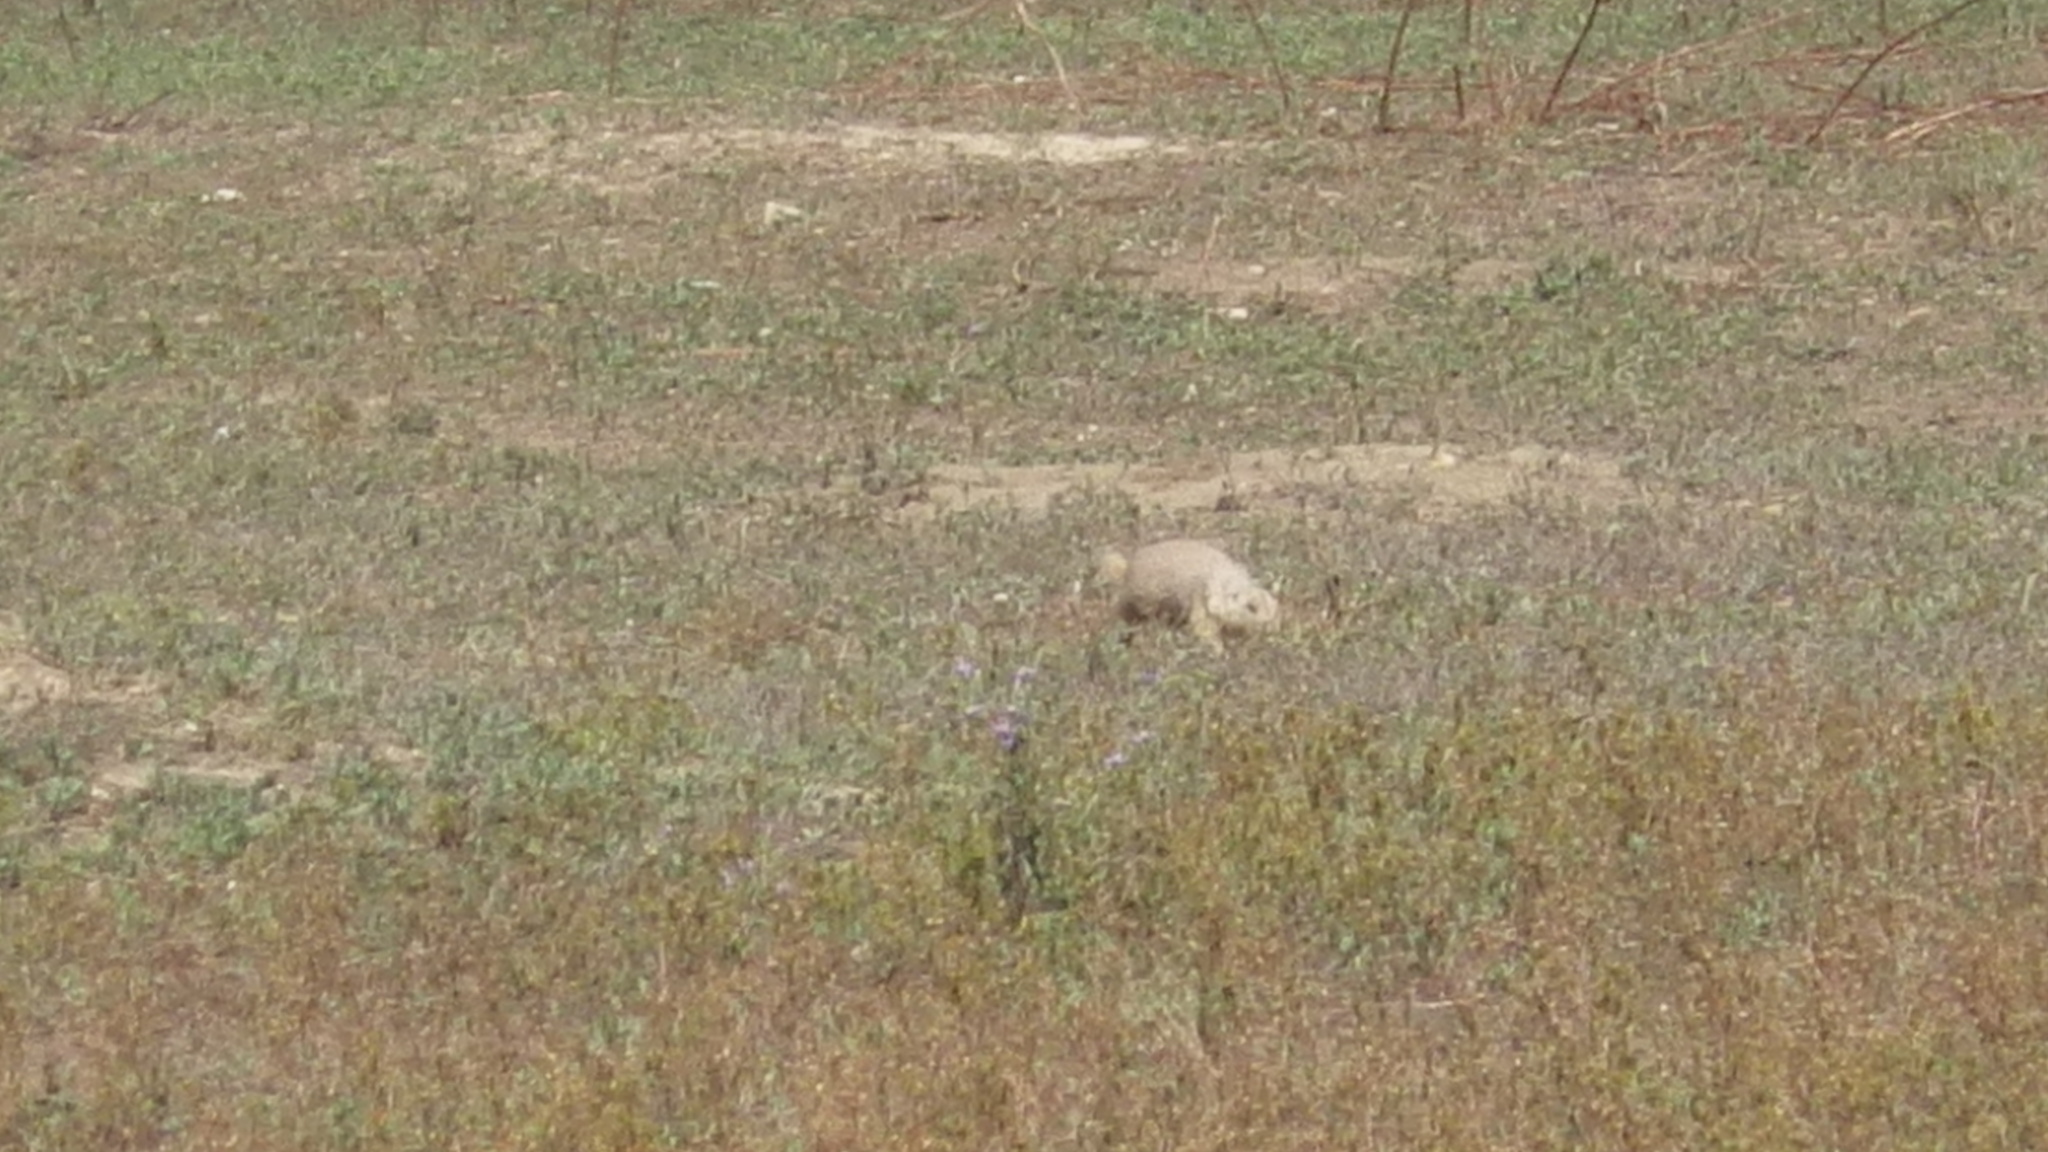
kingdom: Animalia
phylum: Chordata
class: Mammalia
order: Rodentia
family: Sciuridae
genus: Cynomys
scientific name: Cynomys ludovicianus
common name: Black-tailed prairie dog
